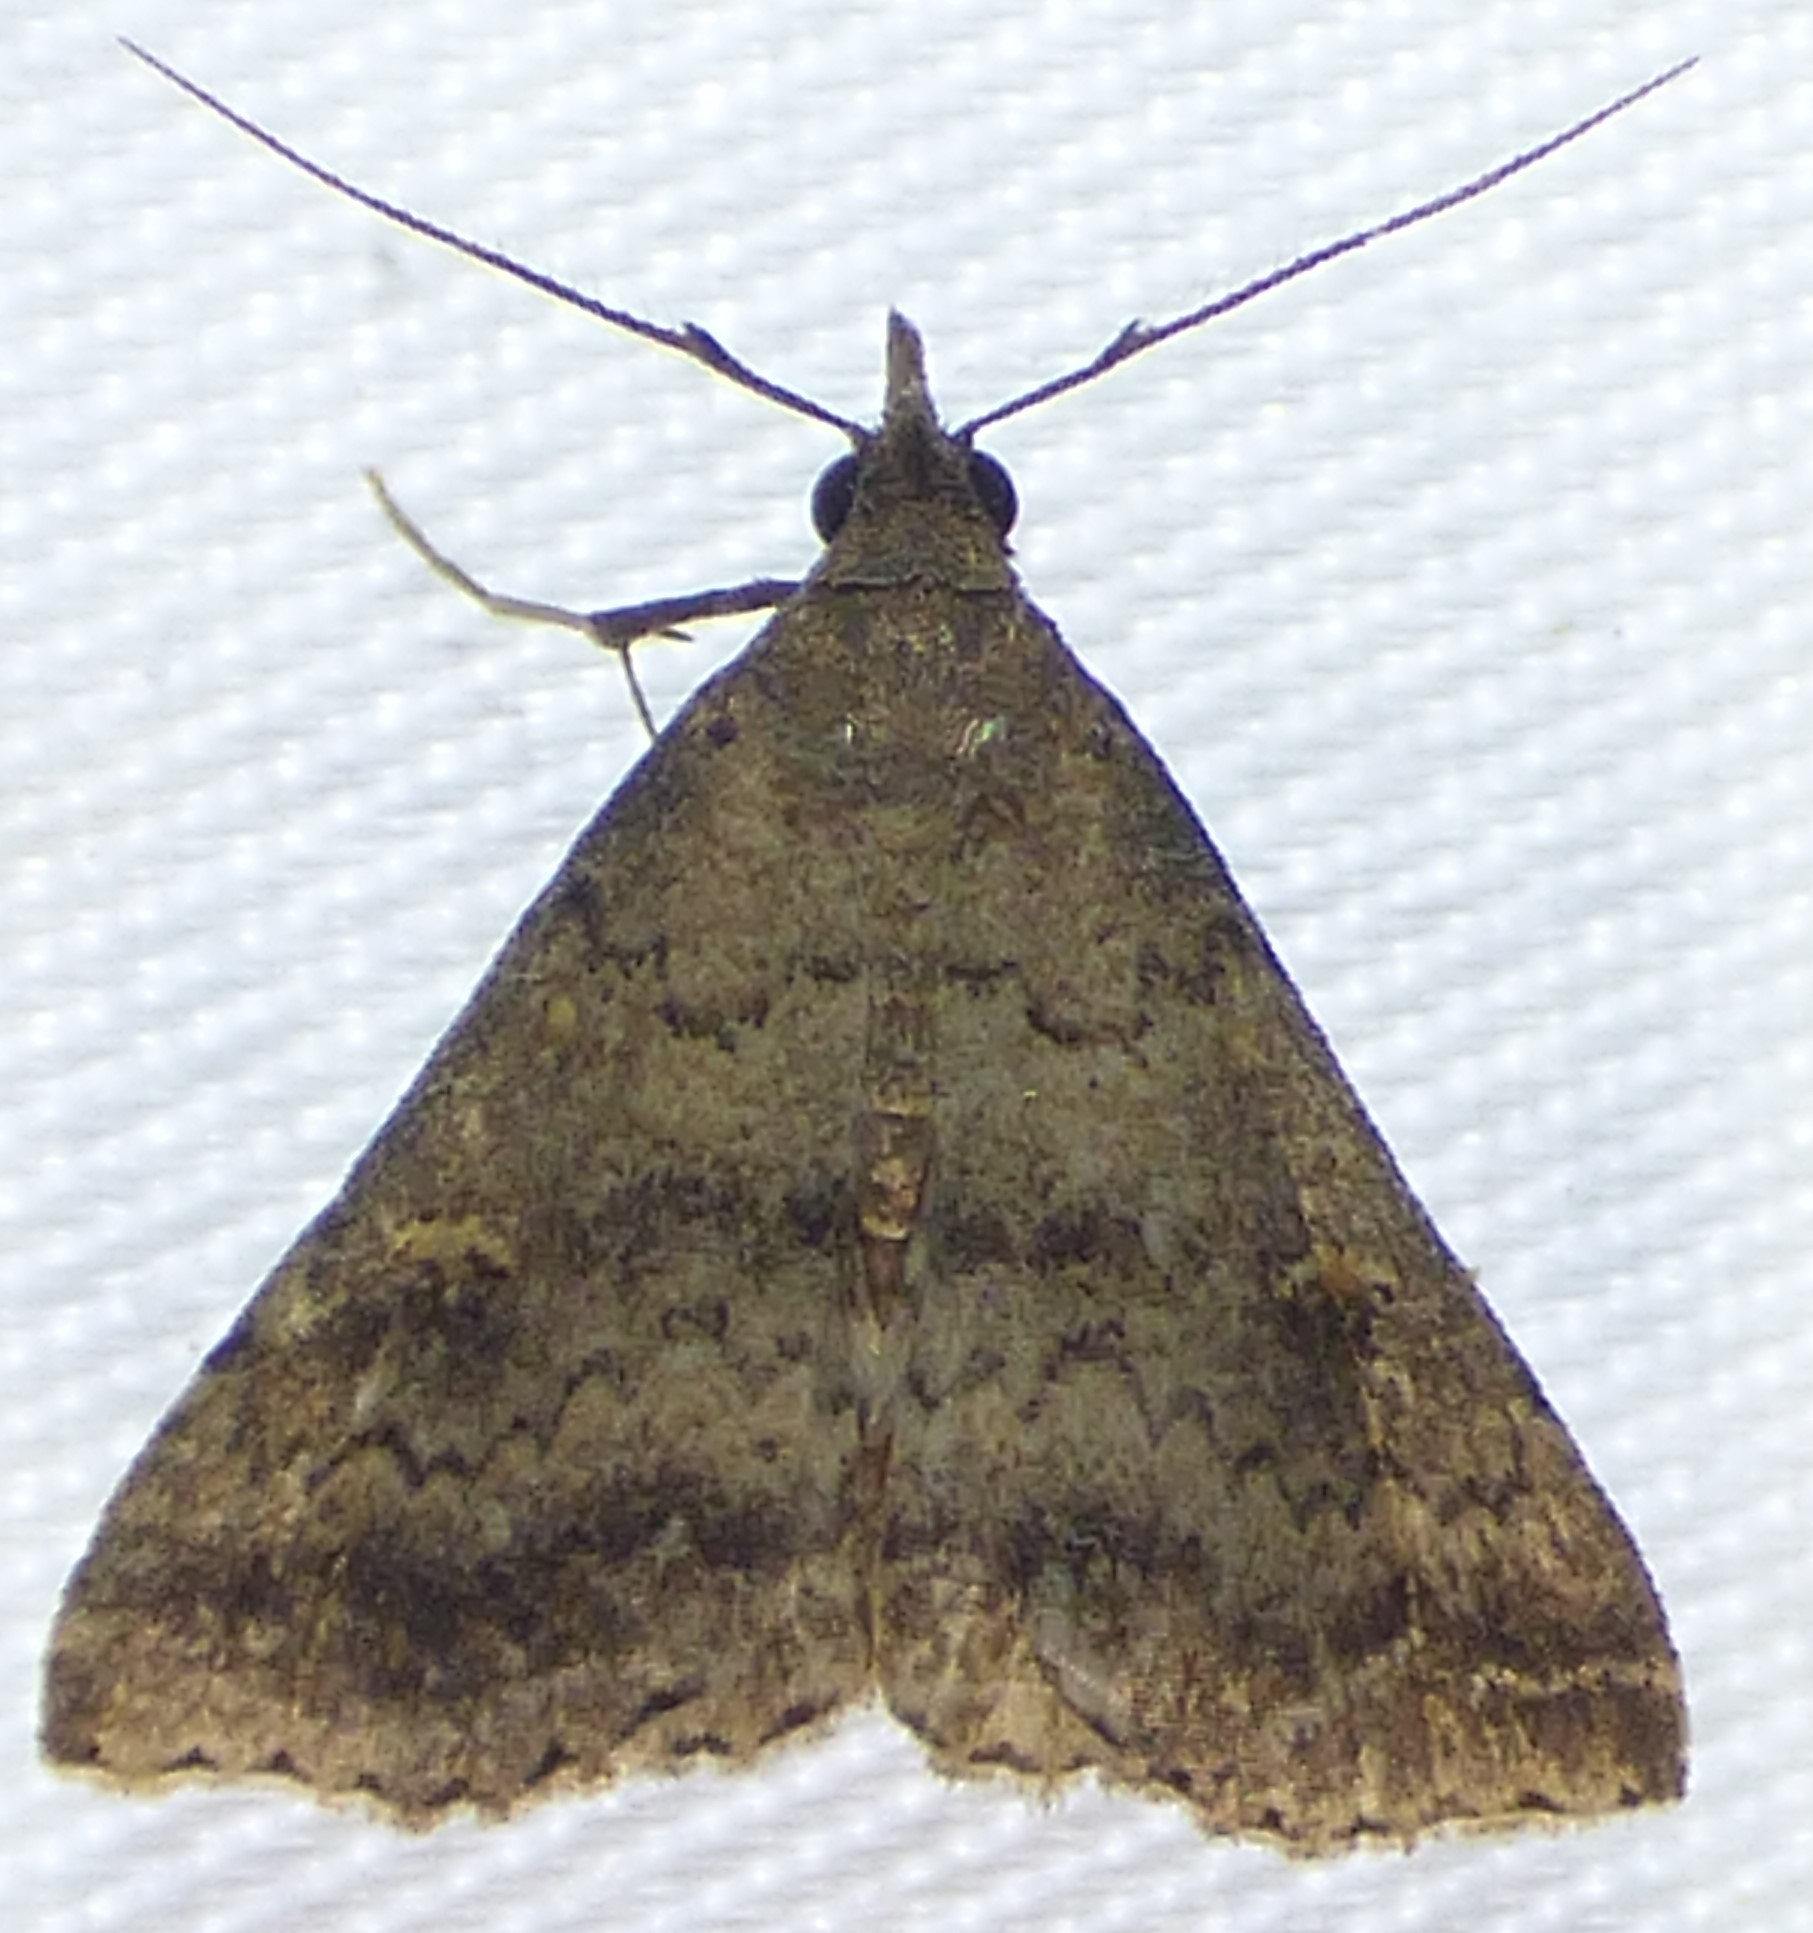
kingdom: Animalia
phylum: Arthropoda
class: Insecta
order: Lepidoptera
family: Erebidae
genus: Tetanolita
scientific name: Tetanolita floridana
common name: Florida tetanolita moth
